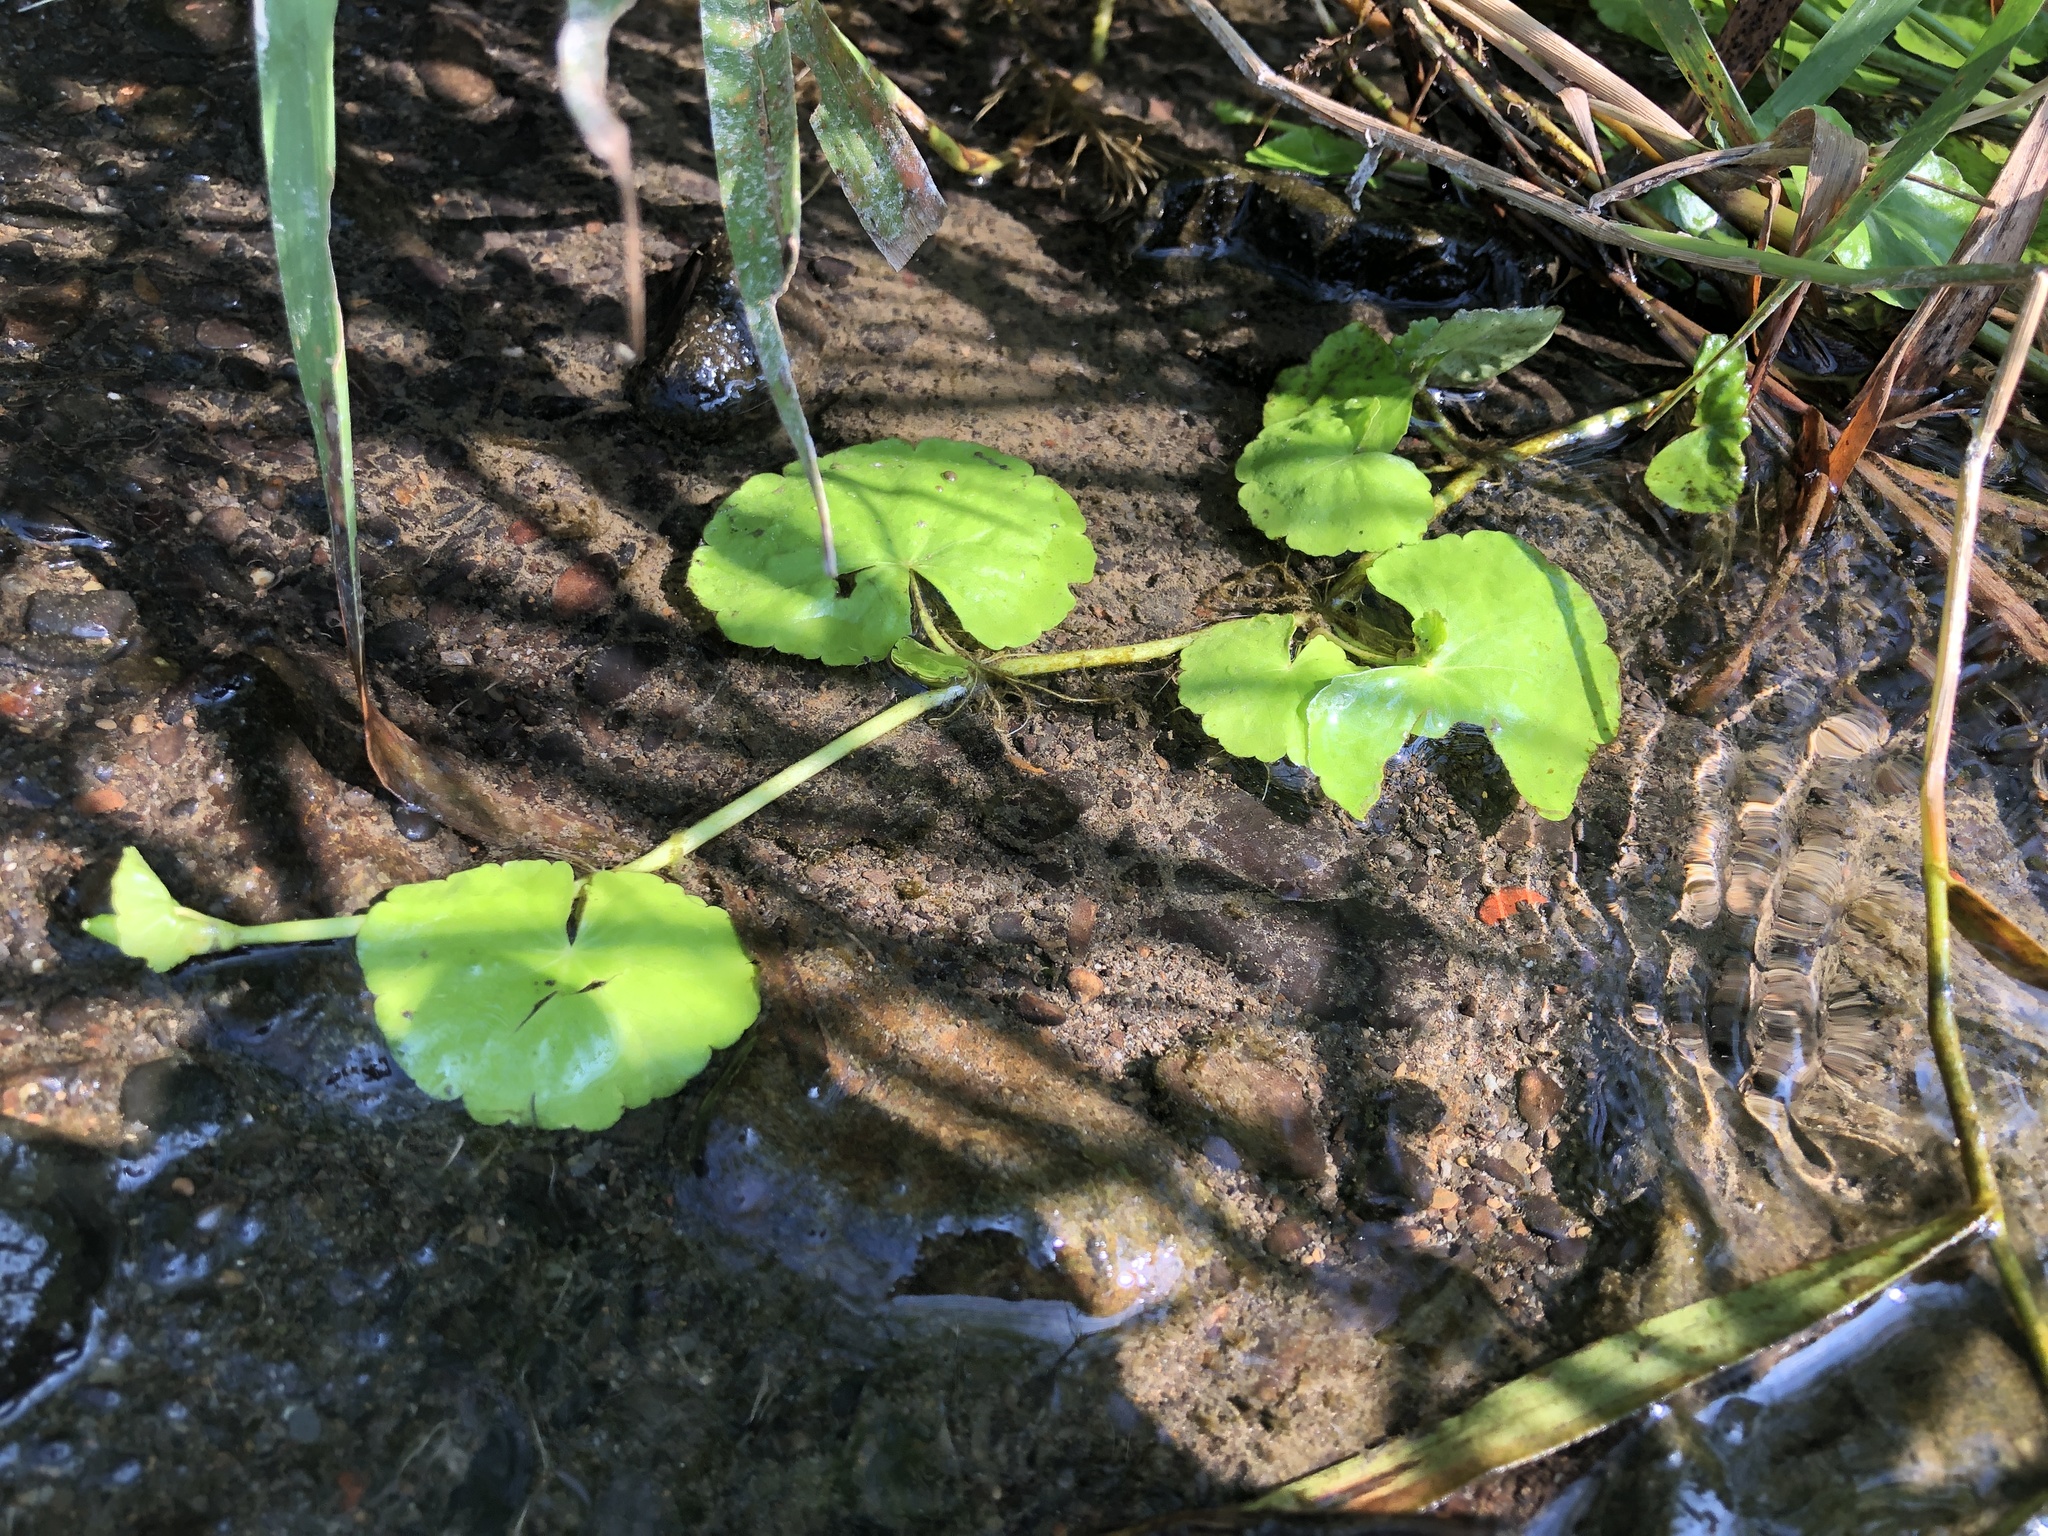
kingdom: Plantae
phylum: Tracheophyta
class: Magnoliopsida
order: Apiales
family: Araliaceae
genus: Hydrocotyle
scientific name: Hydrocotyle leucocephala
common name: Brazilian pennywort
